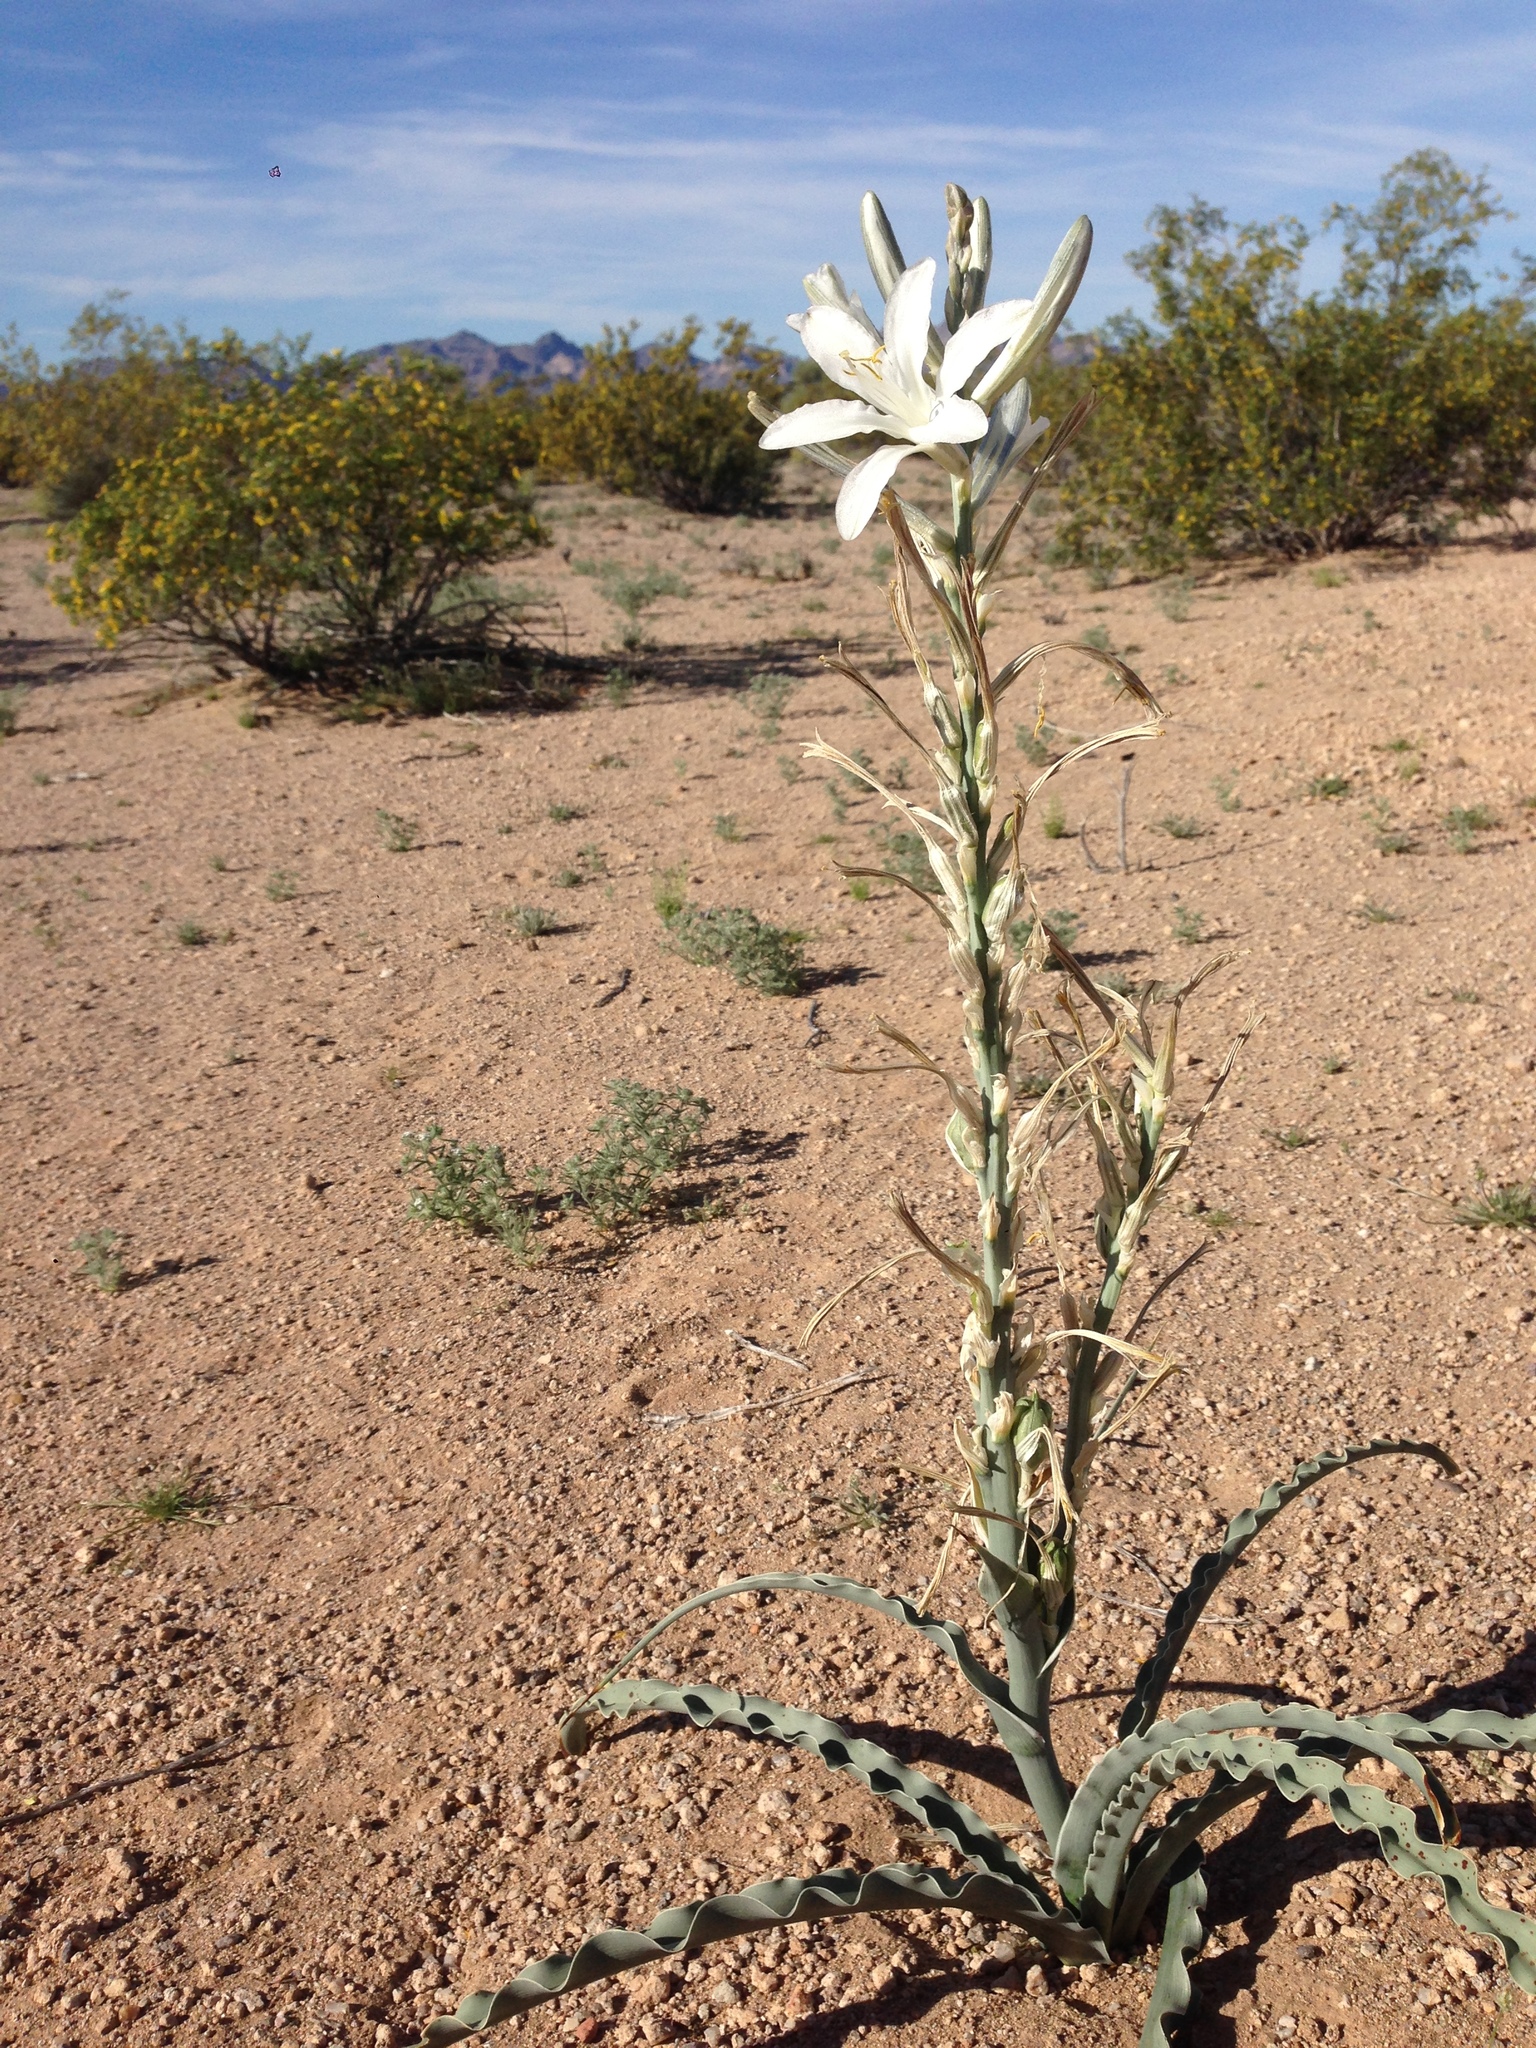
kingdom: Plantae
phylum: Tracheophyta
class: Liliopsida
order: Asparagales
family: Asparagaceae
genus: Hesperocallis
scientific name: Hesperocallis undulata
